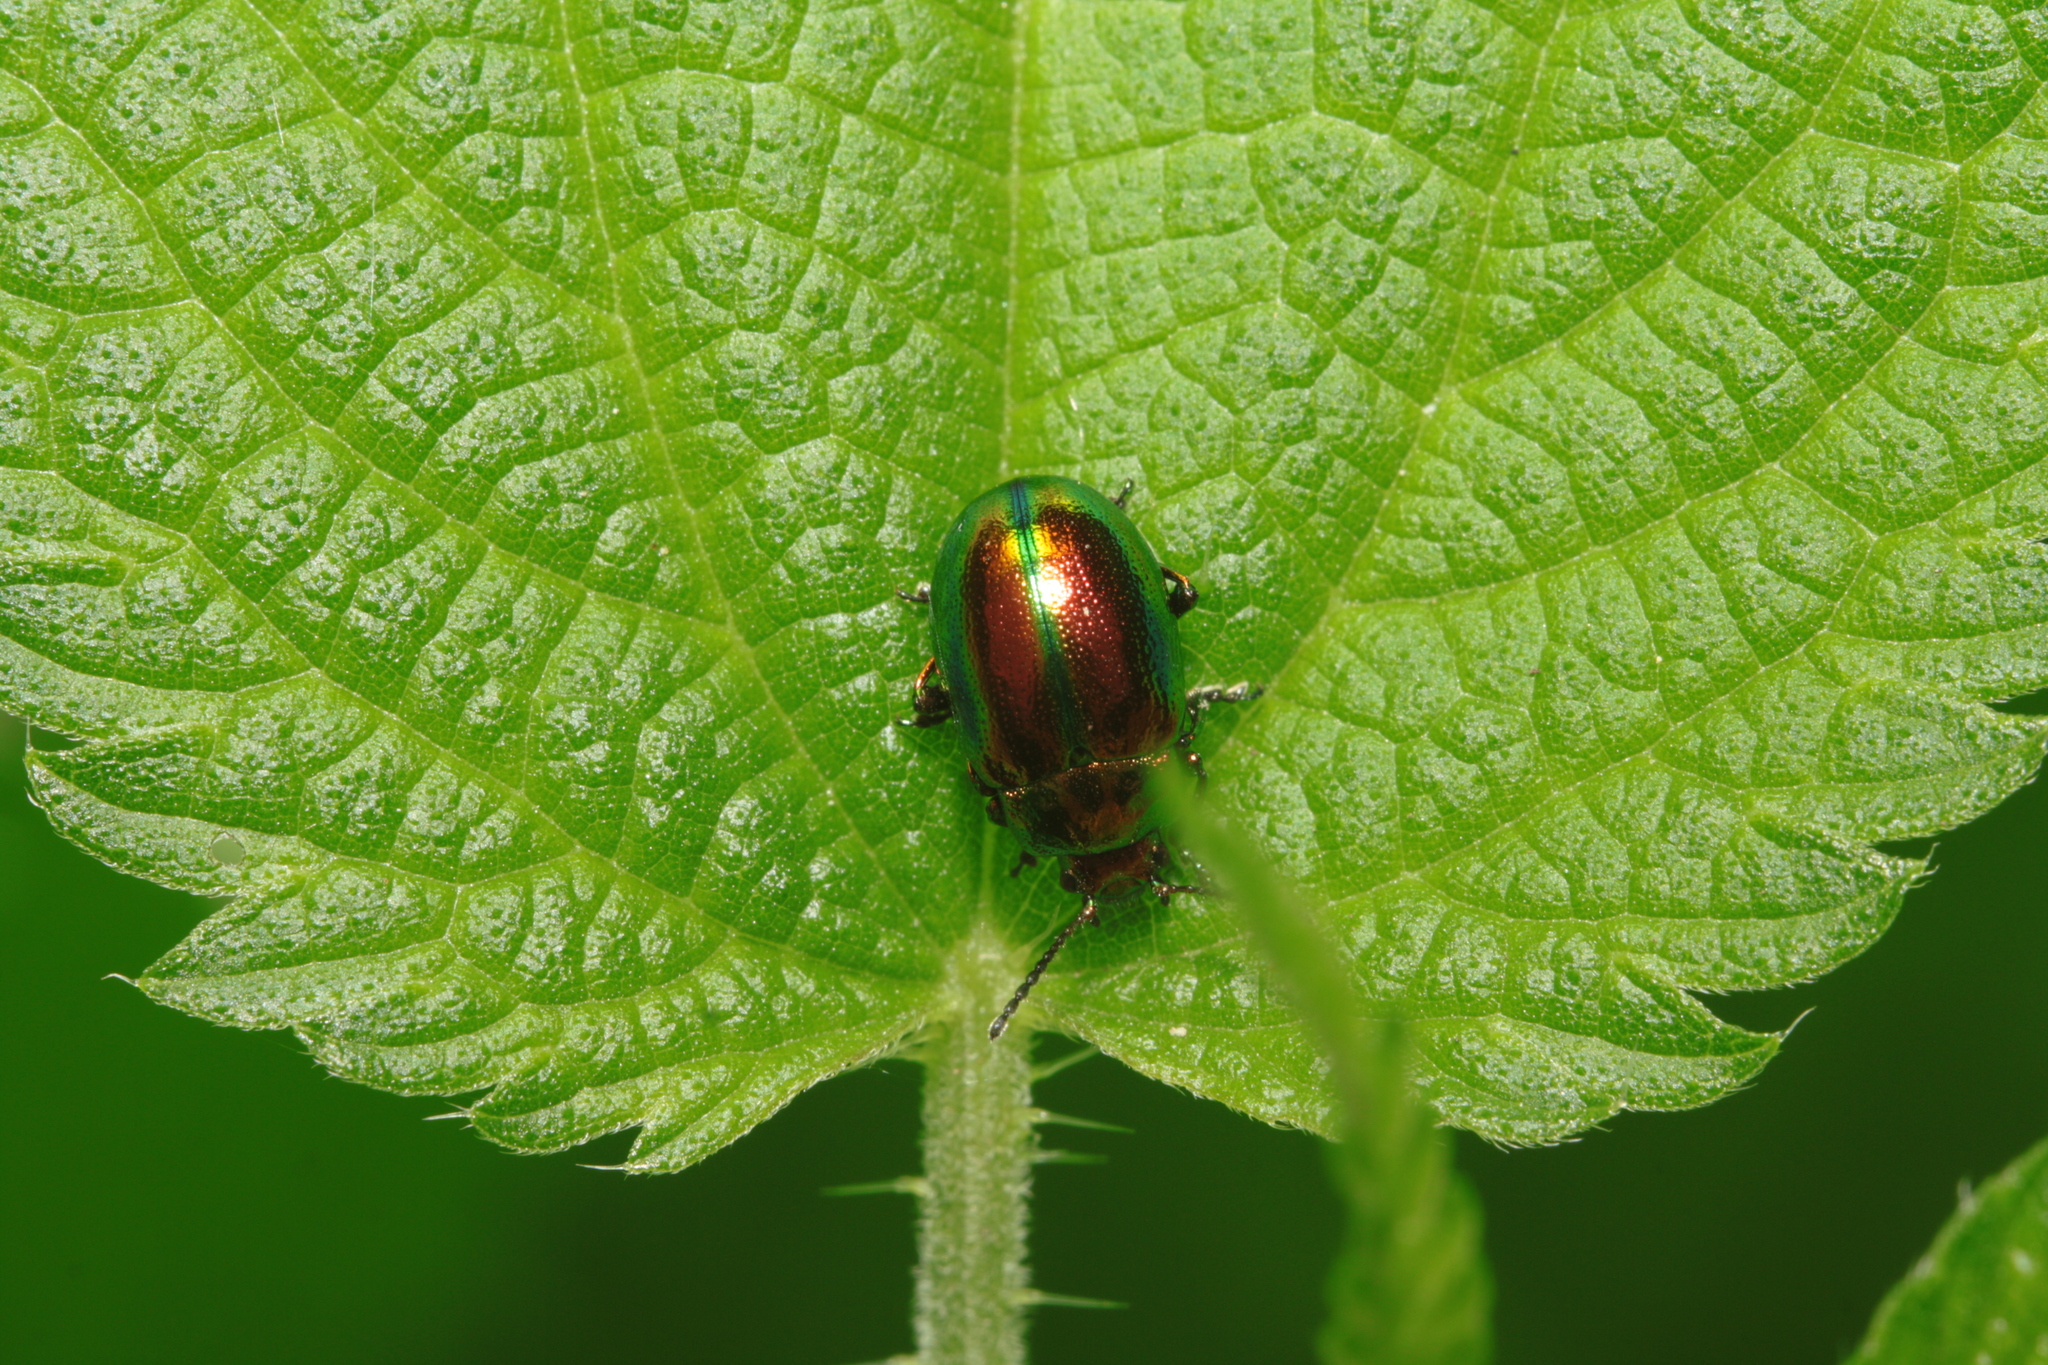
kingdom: Animalia
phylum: Arthropoda
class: Insecta
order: Coleoptera
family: Chrysomelidae
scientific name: Chrysomelidae
